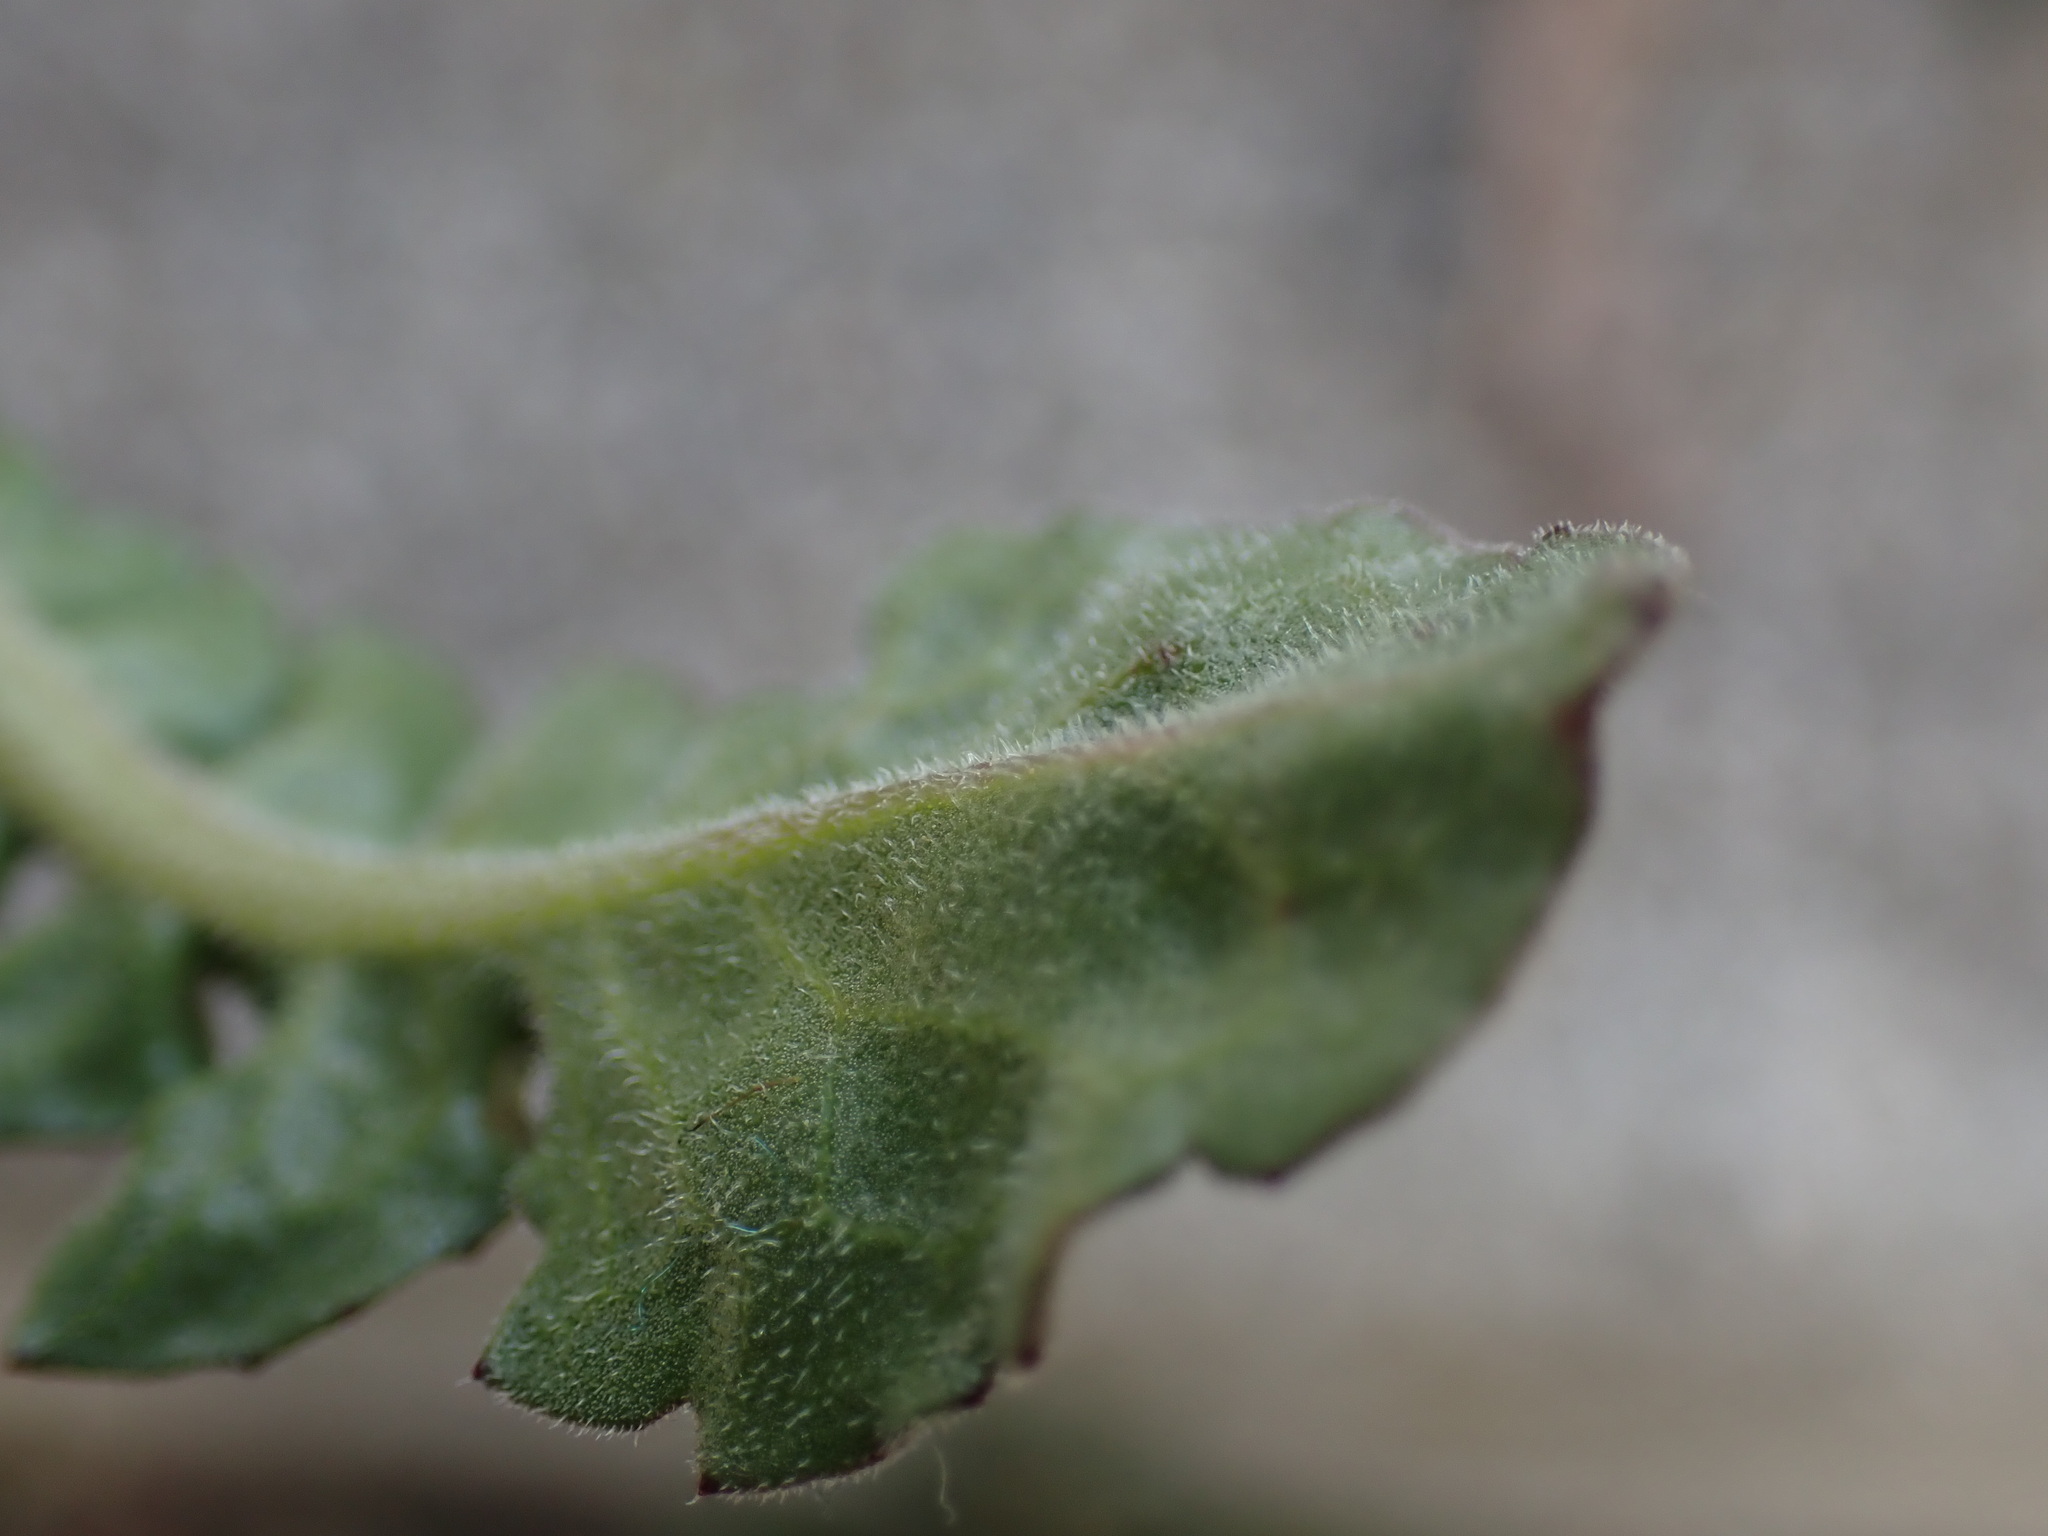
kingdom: Plantae
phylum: Tracheophyta
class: Magnoliopsida
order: Asterales
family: Asteraceae
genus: Urospermum
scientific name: Urospermum dalechampii
